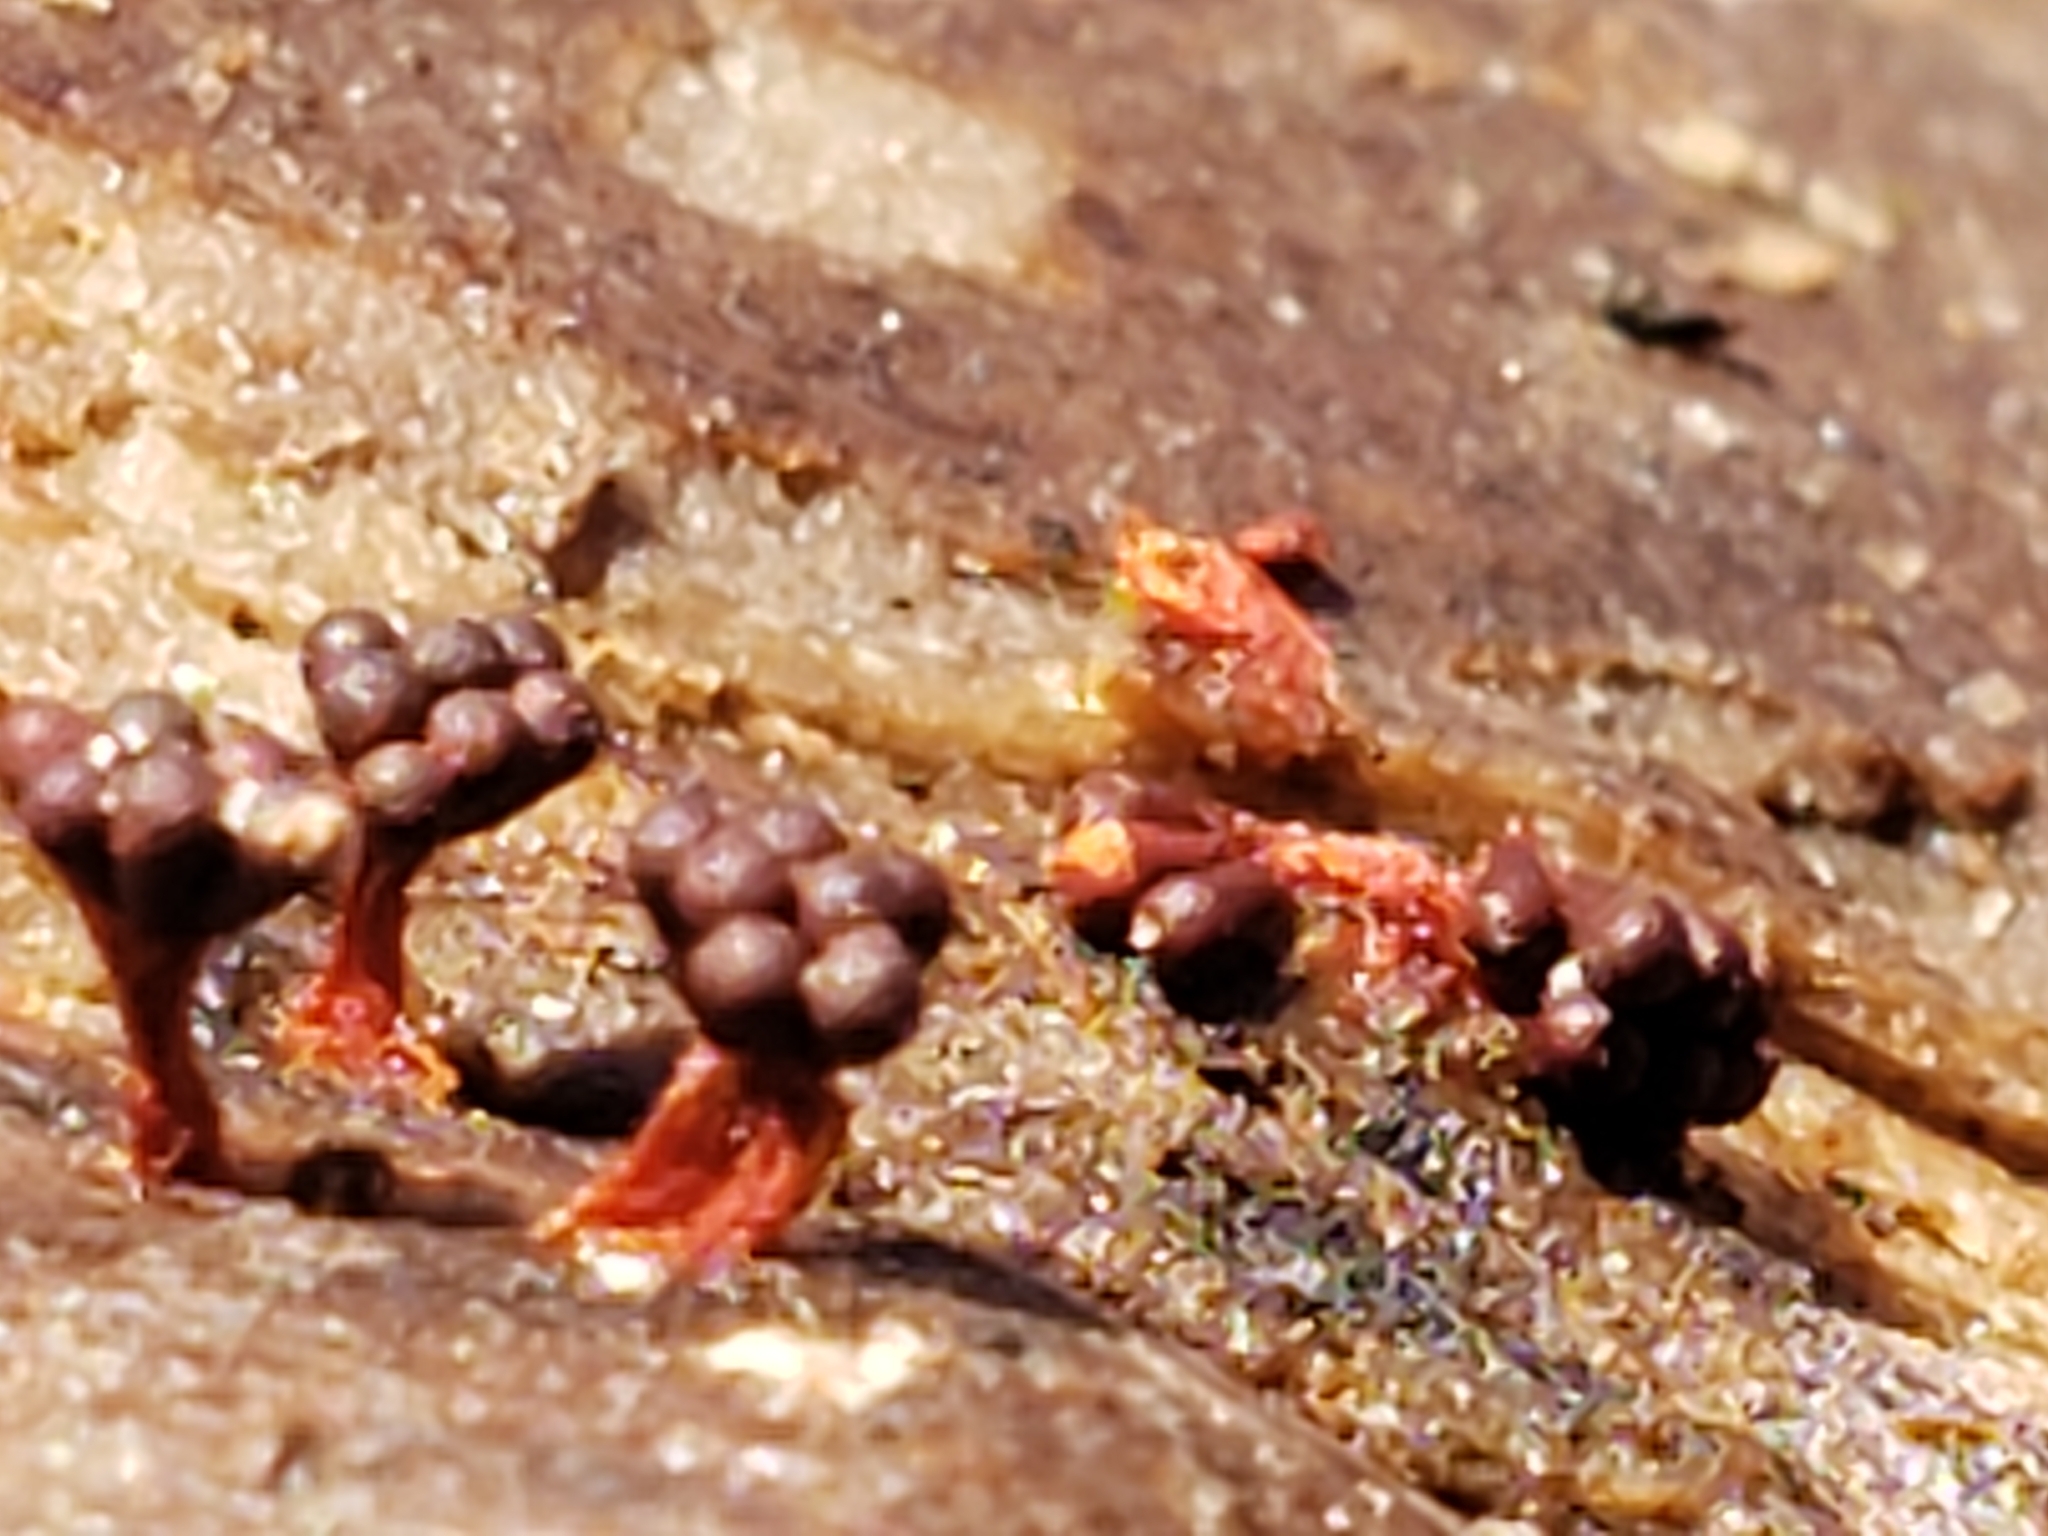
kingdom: Protozoa
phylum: Mycetozoa
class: Myxomycetes
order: Trichiales
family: Trichiaceae
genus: Metatrichia
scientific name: Metatrichia vesparia
